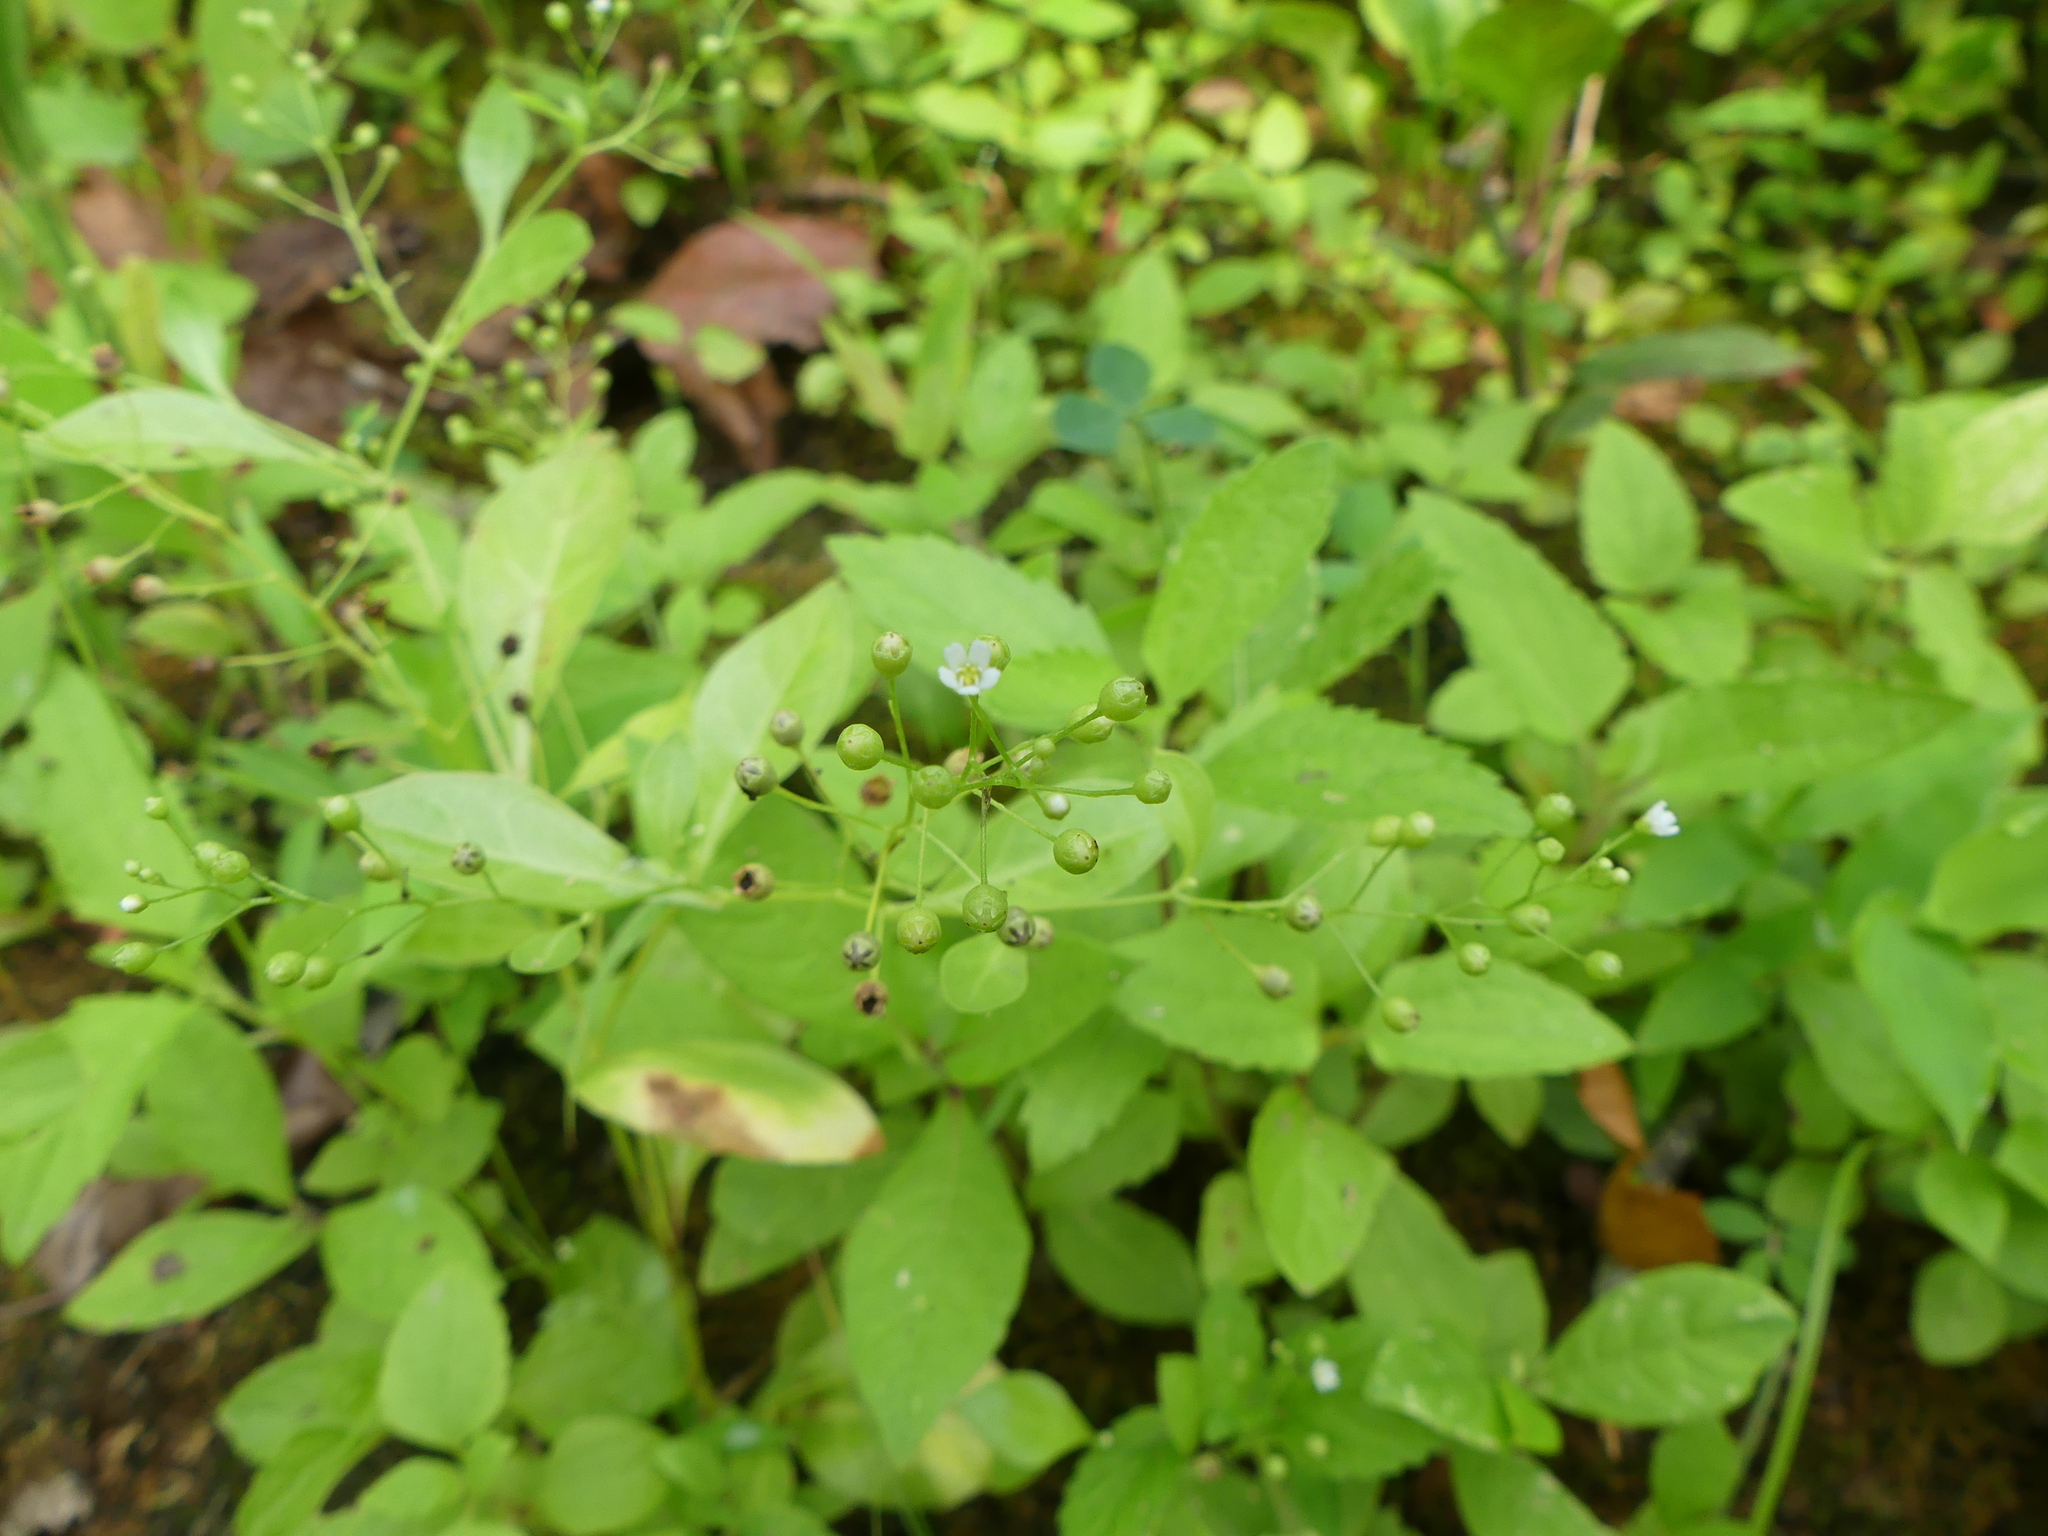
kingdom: Plantae
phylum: Tracheophyta
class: Magnoliopsida
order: Ericales
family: Primulaceae
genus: Samolus
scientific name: Samolus parviflorus
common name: False water pimpernel
